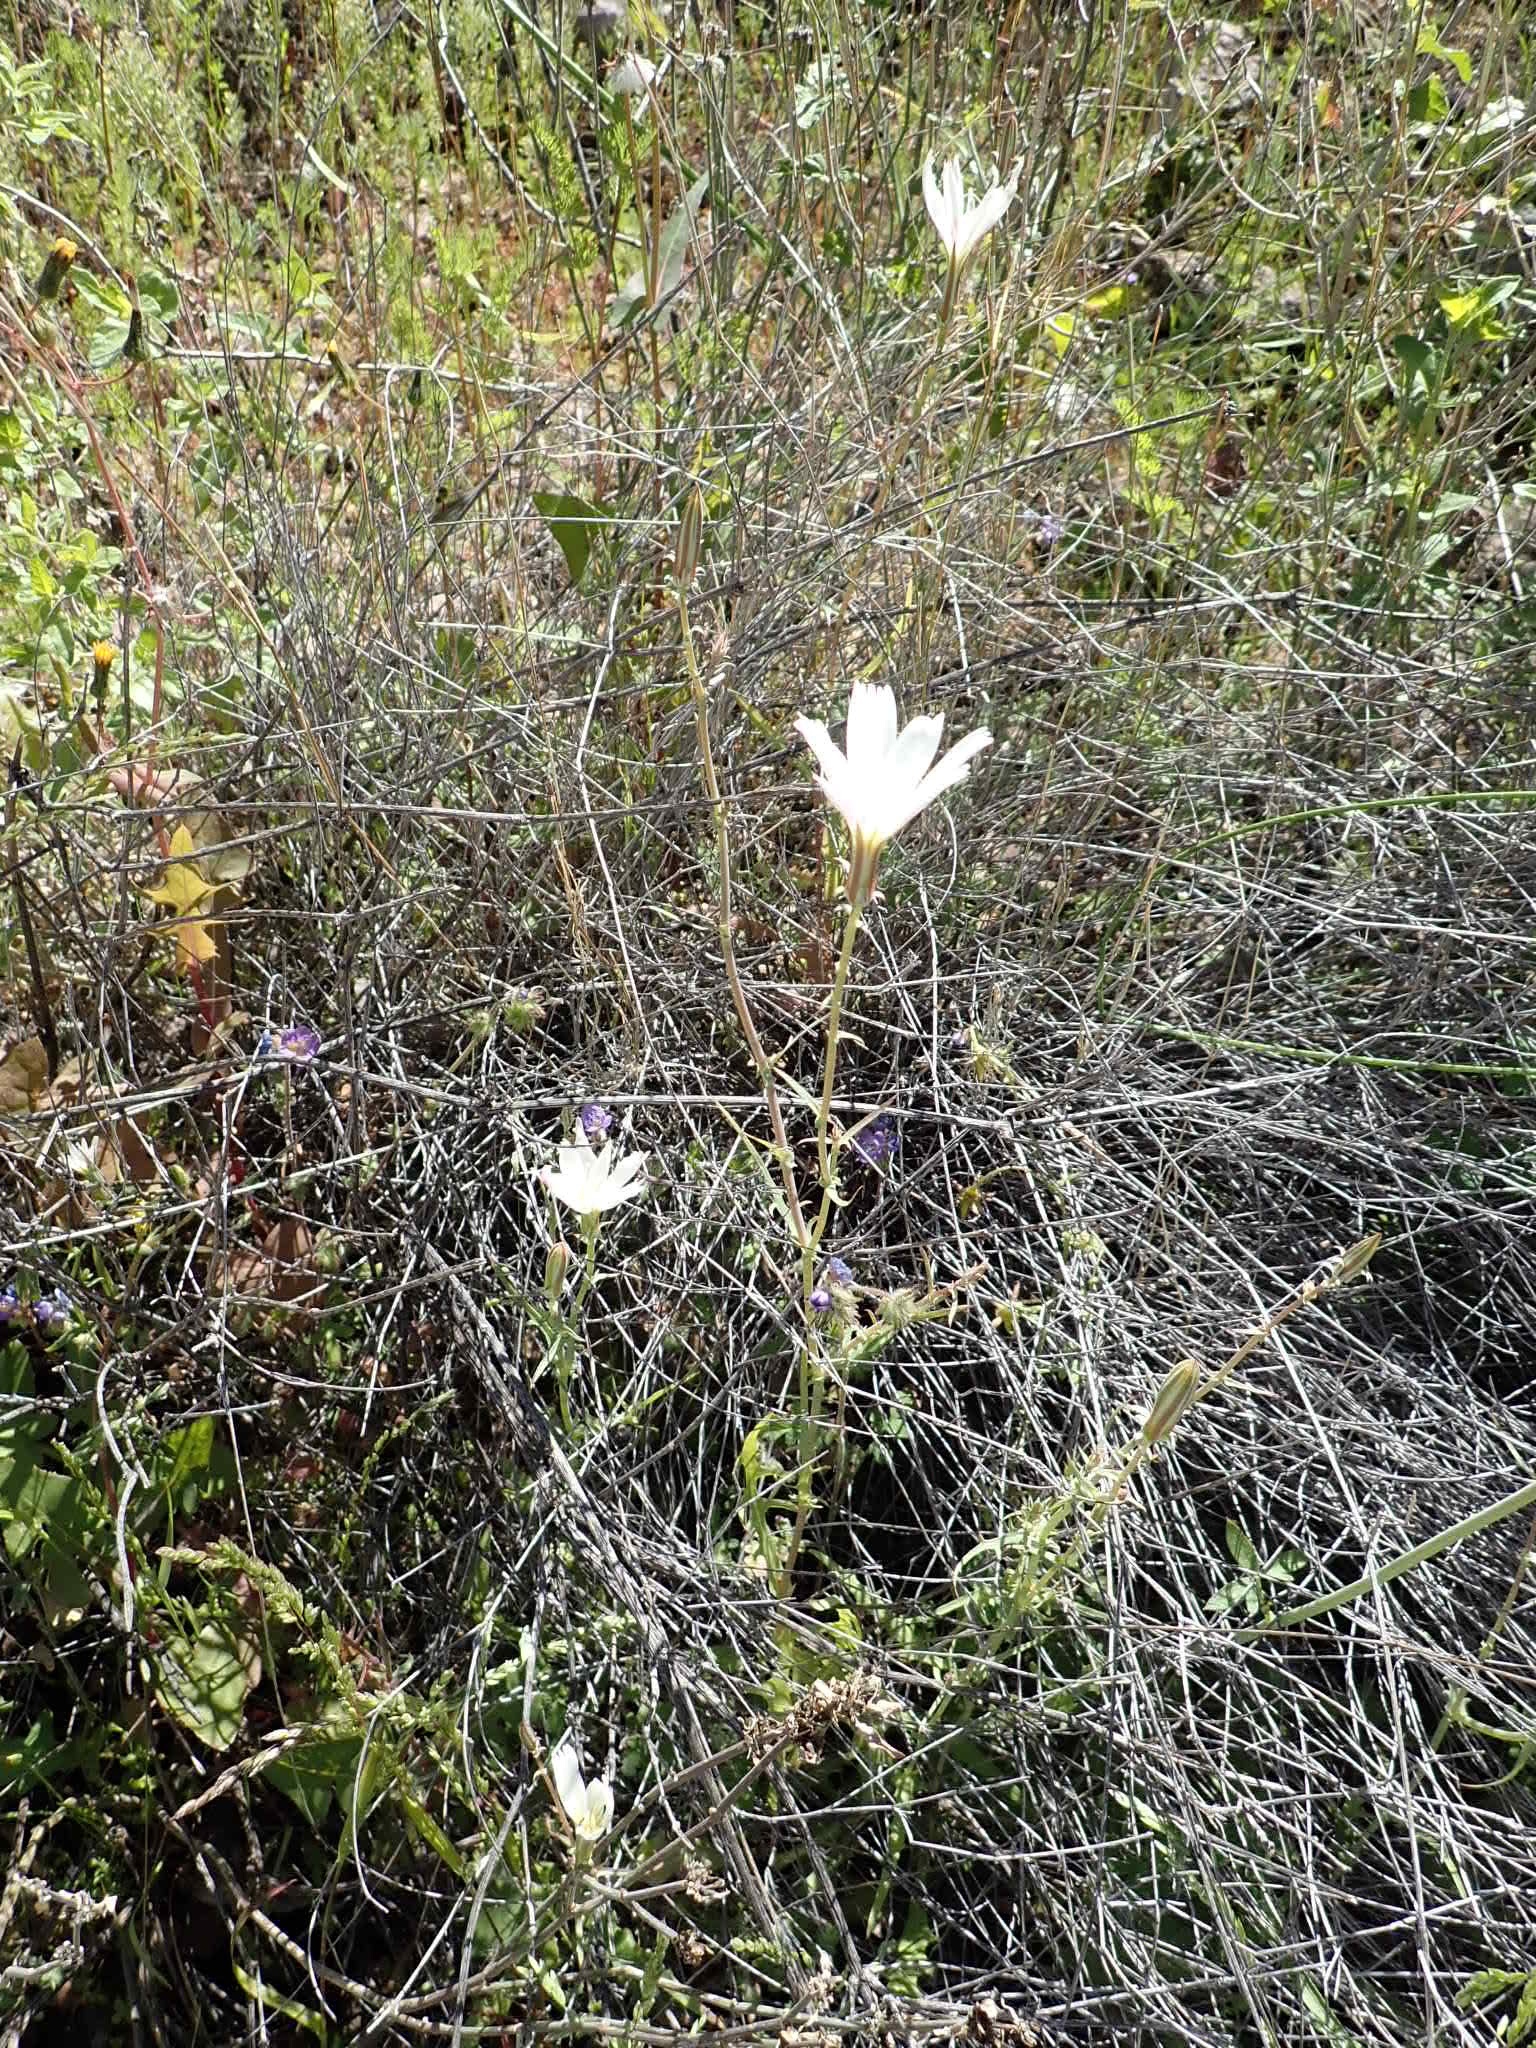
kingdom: Plantae
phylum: Tracheophyta
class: Magnoliopsida
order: Asterales
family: Asteraceae
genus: Rafinesquia
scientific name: Rafinesquia neomexicana
